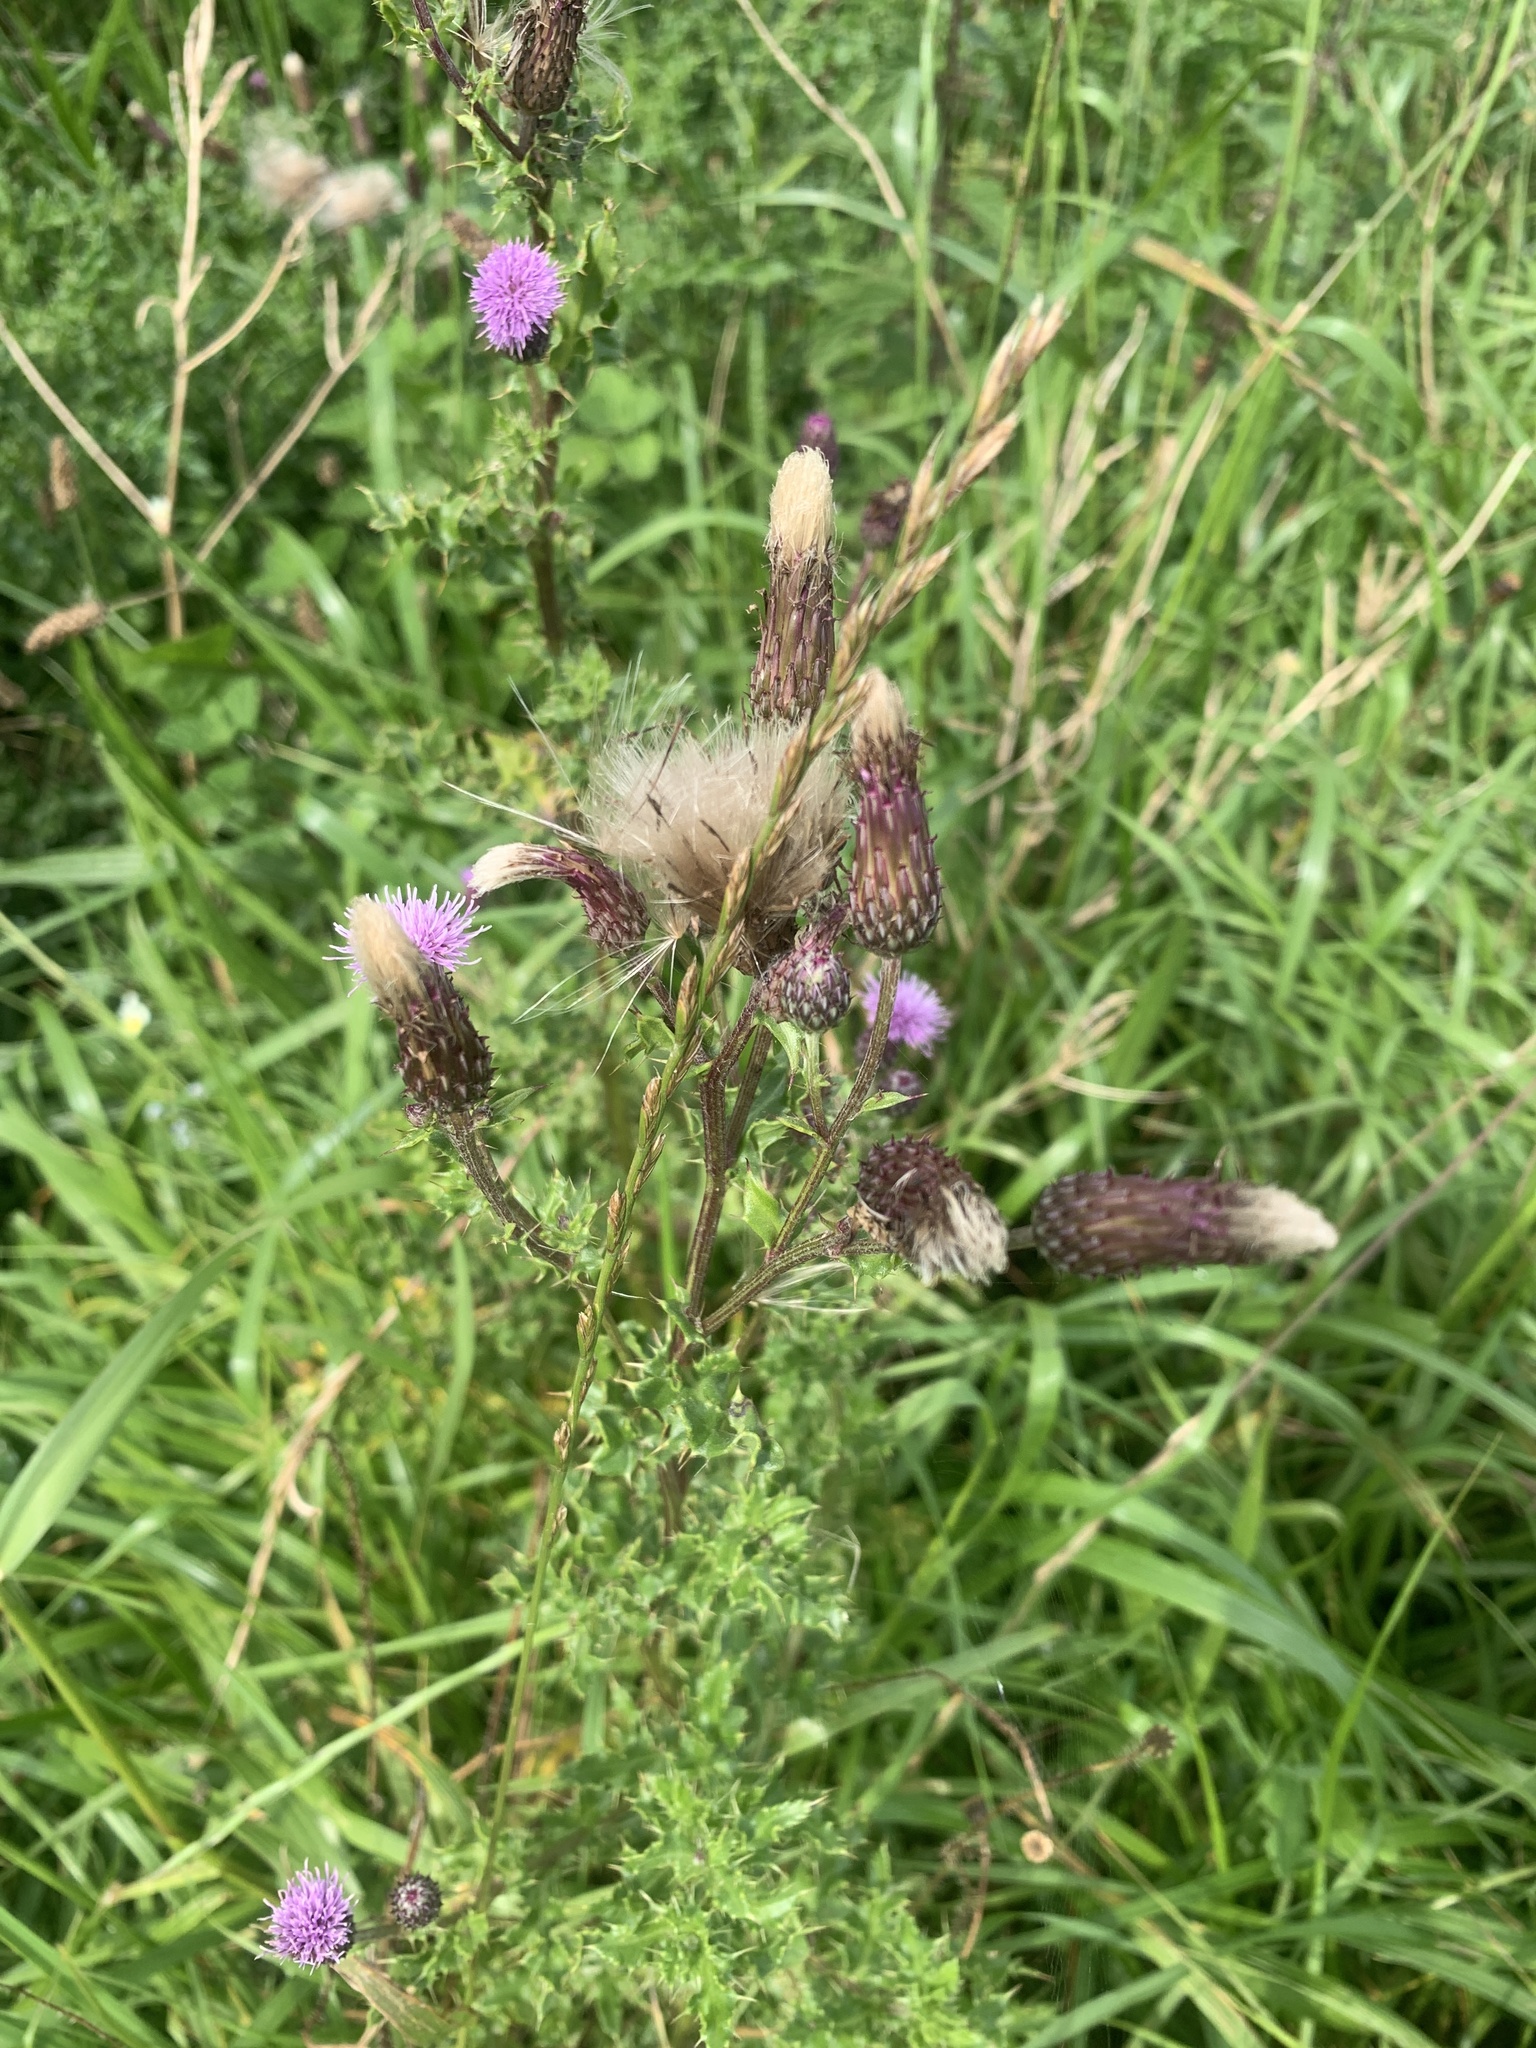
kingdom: Plantae
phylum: Tracheophyta
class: Magnoliopsida
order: Asterales
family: Asteraceae
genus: Cirsium
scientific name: Cirsium arvense
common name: Creeping thistle
